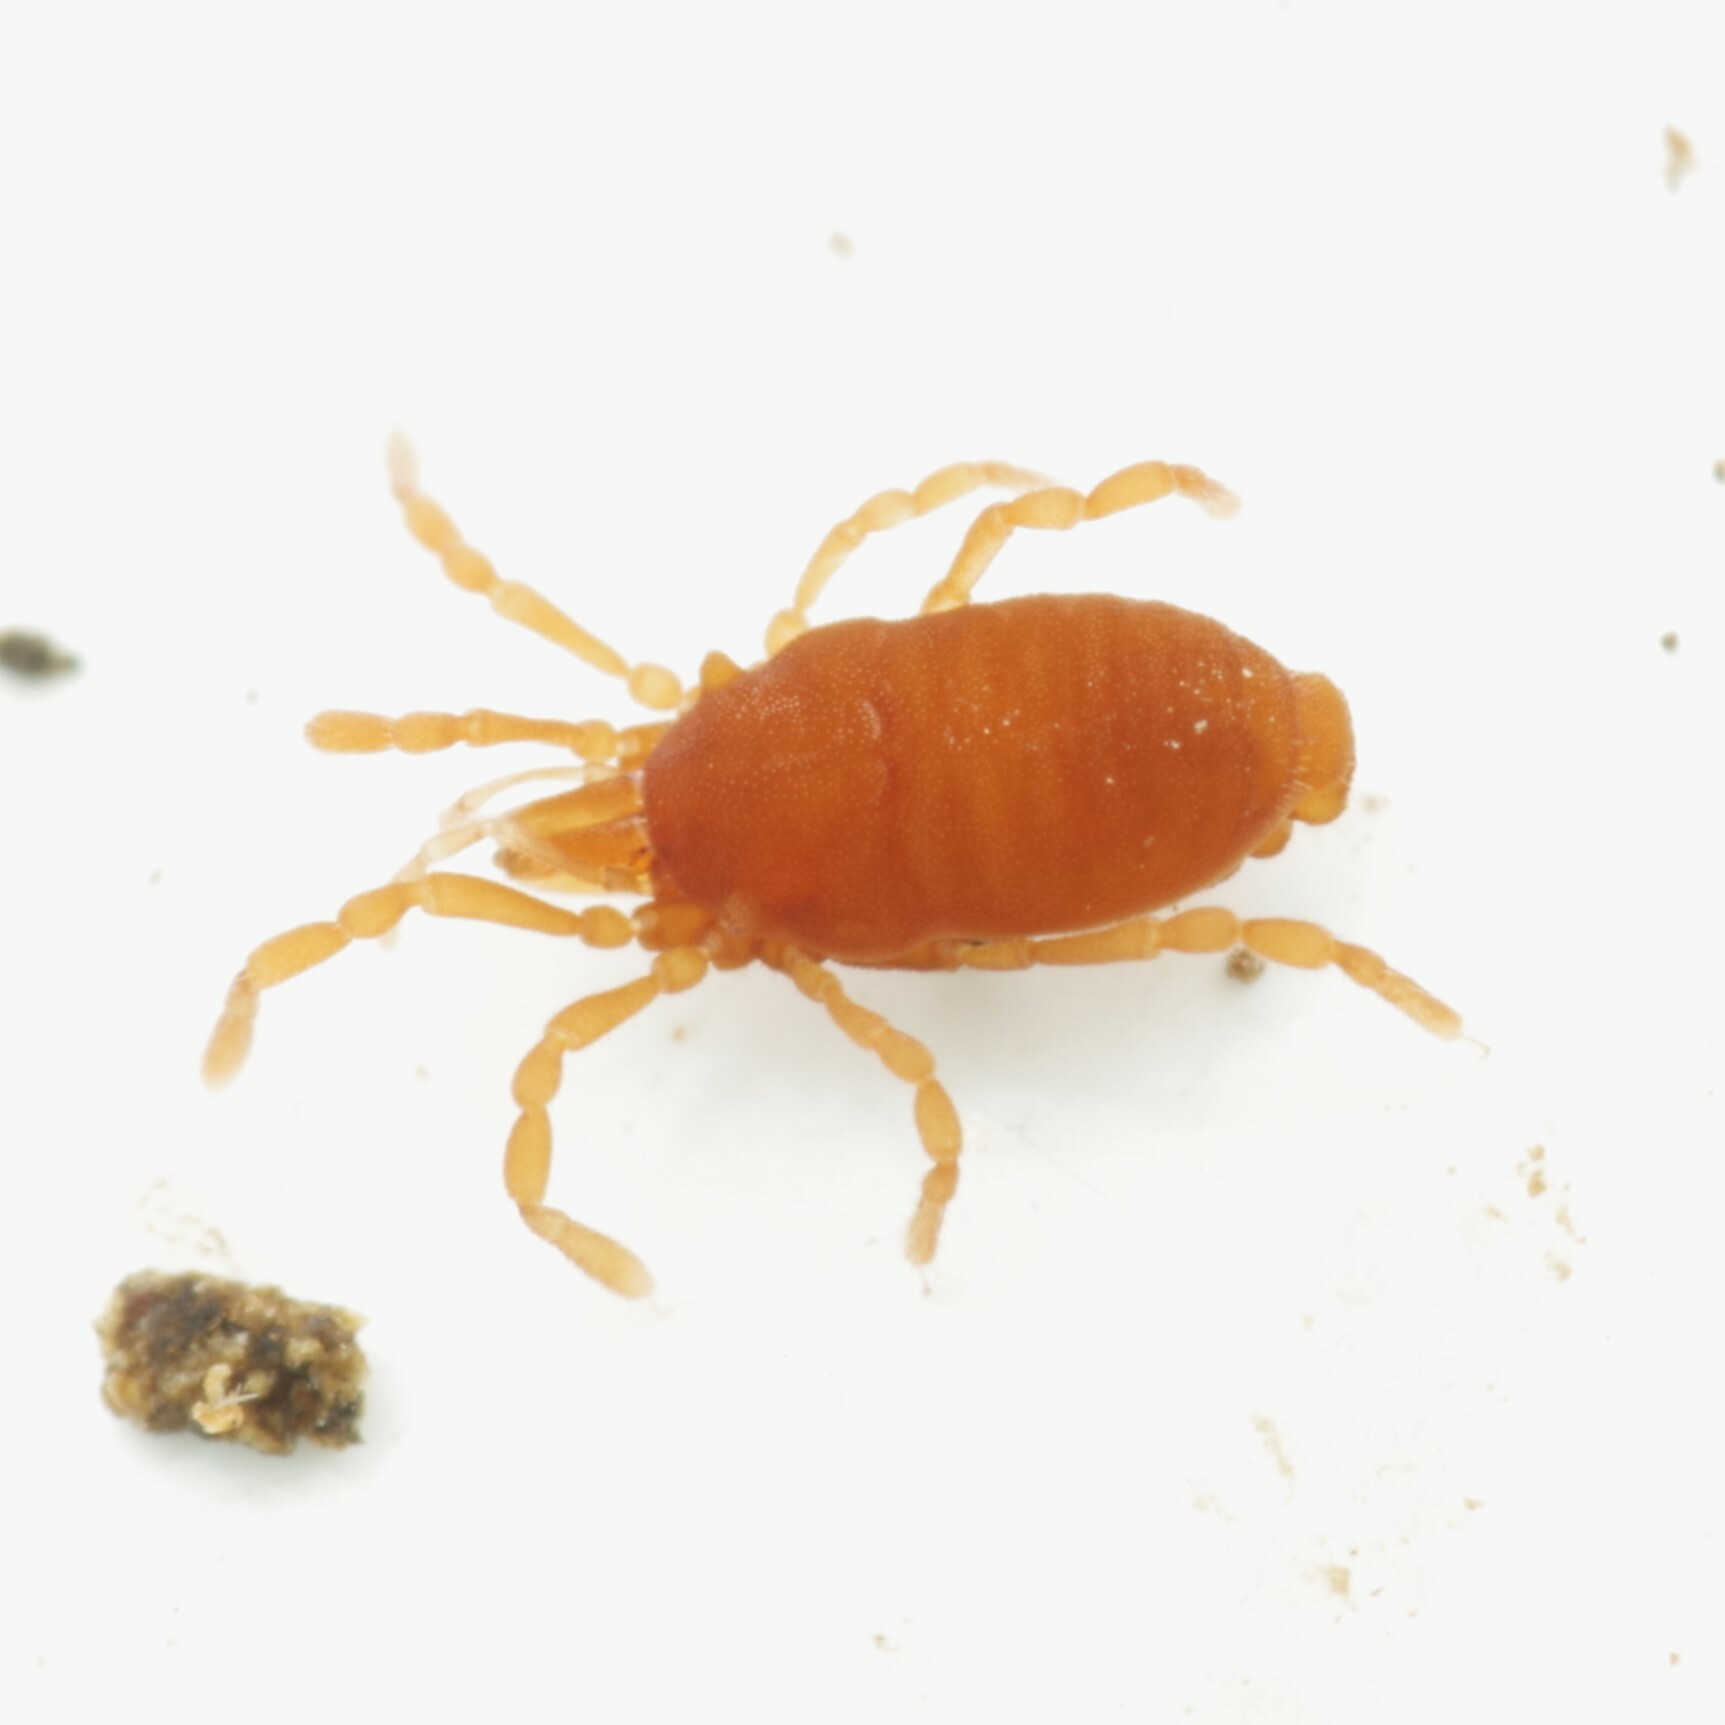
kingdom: Animalia
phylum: Arthropoda
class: Arachnida
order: Opiliones
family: Sironidae
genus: Siro
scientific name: Siro rubens
